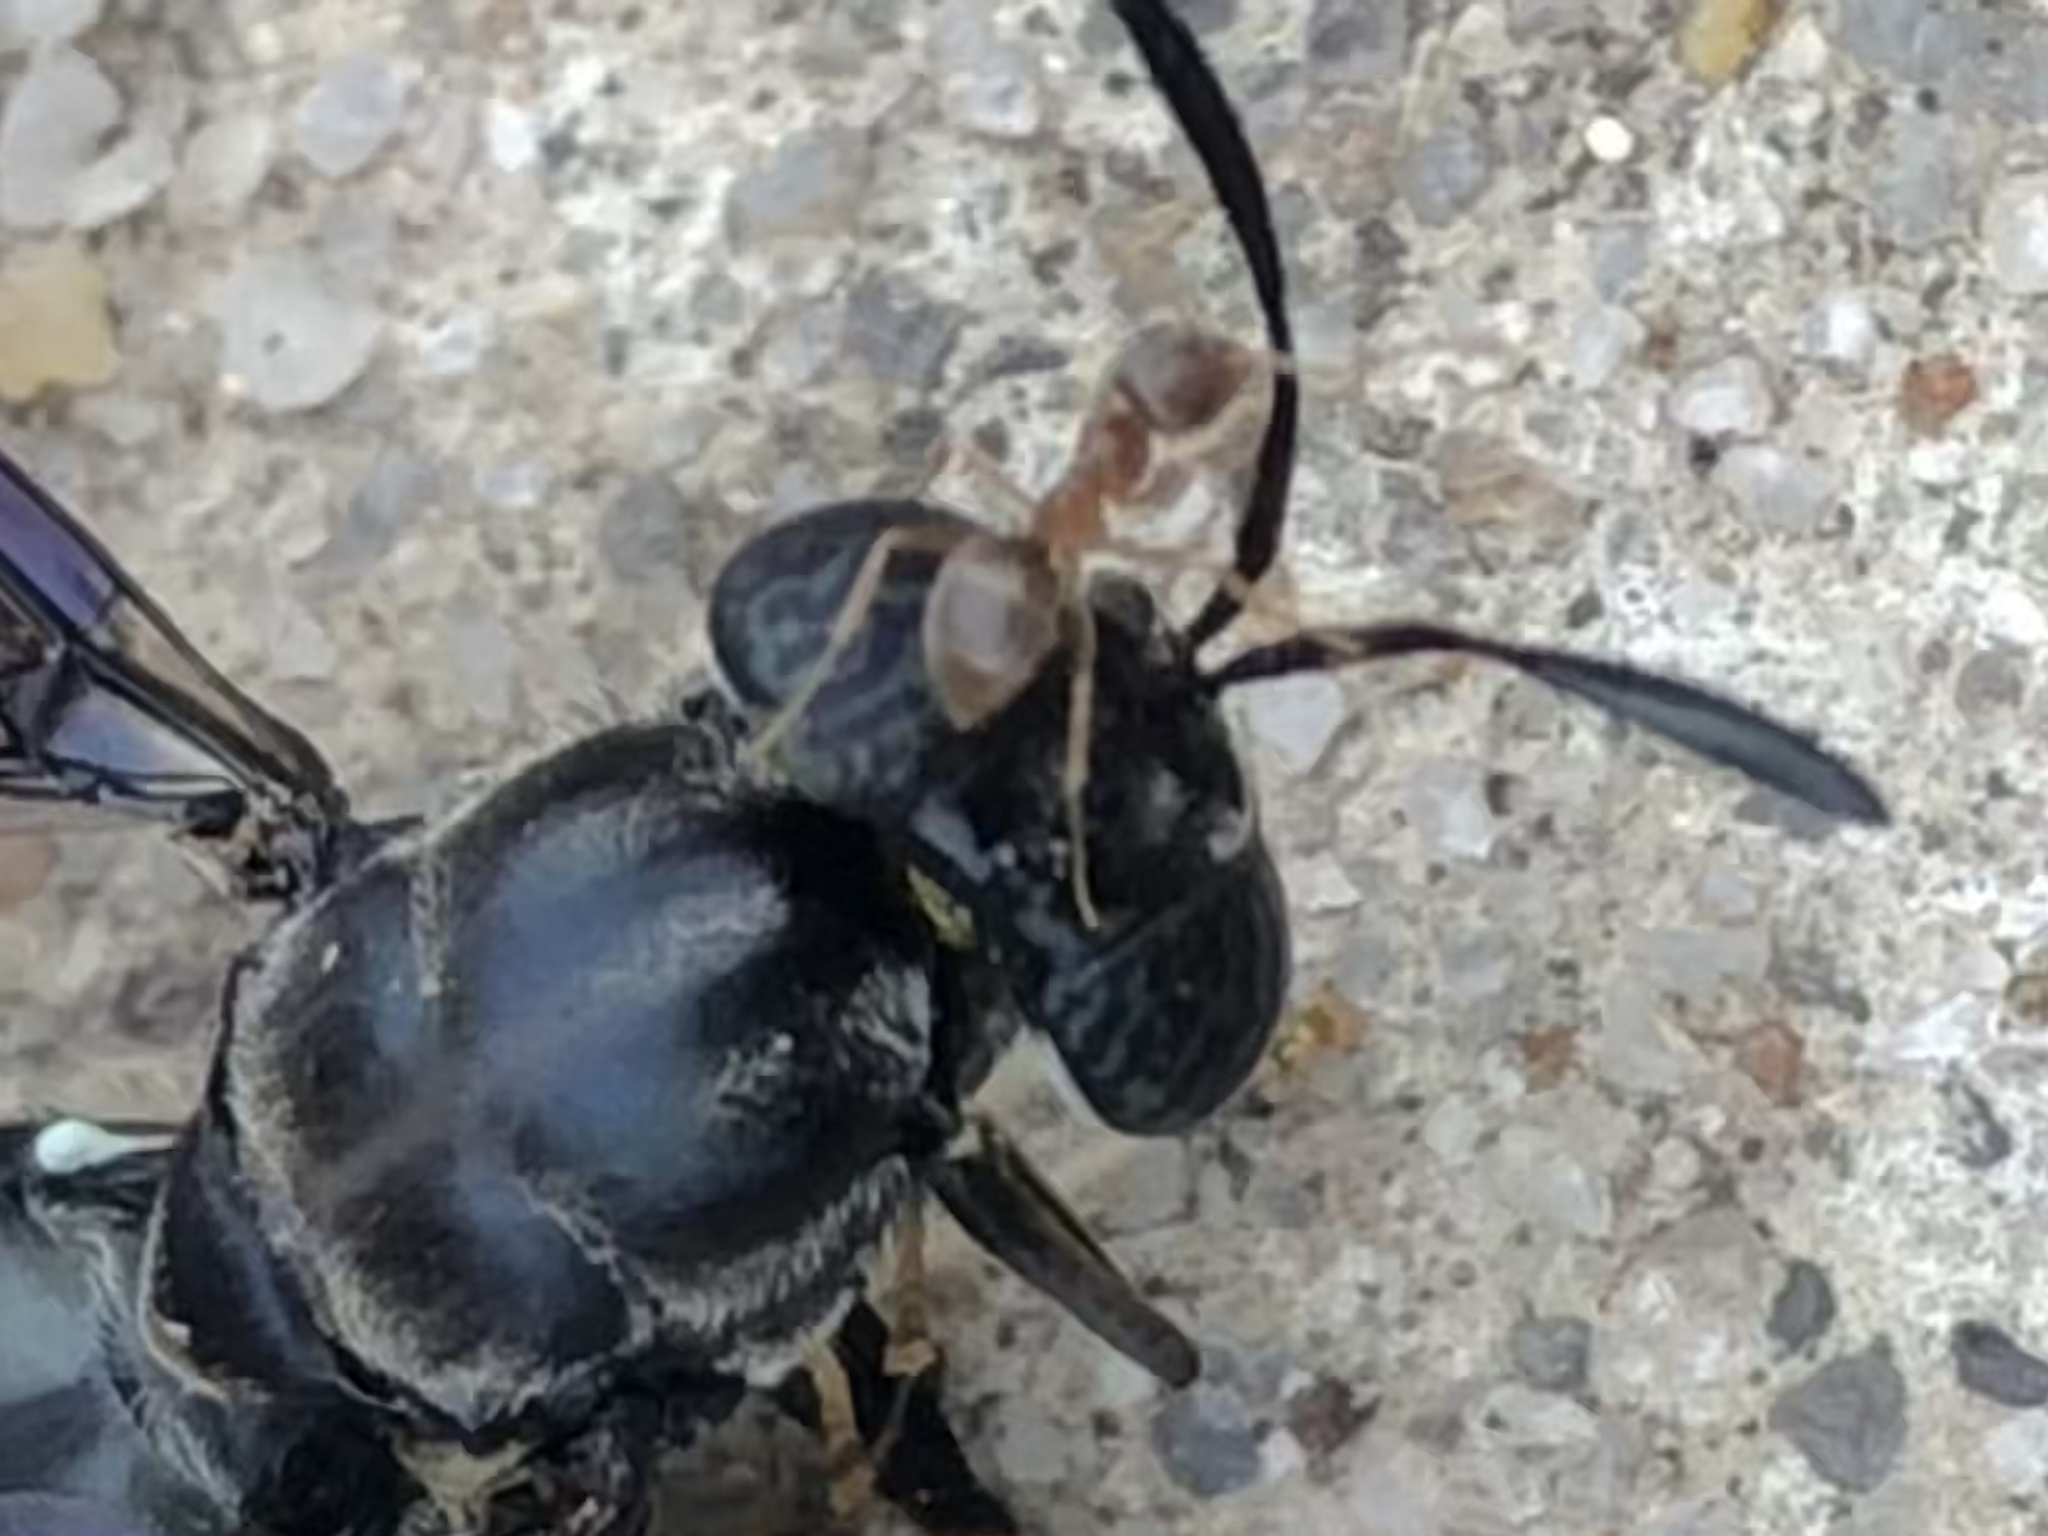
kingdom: Animalia
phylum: Arthropoda
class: Insecta
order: Hymenoptera
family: Formicidae
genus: Lasius
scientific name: Lasius neoniger
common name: Turfgrass ant
